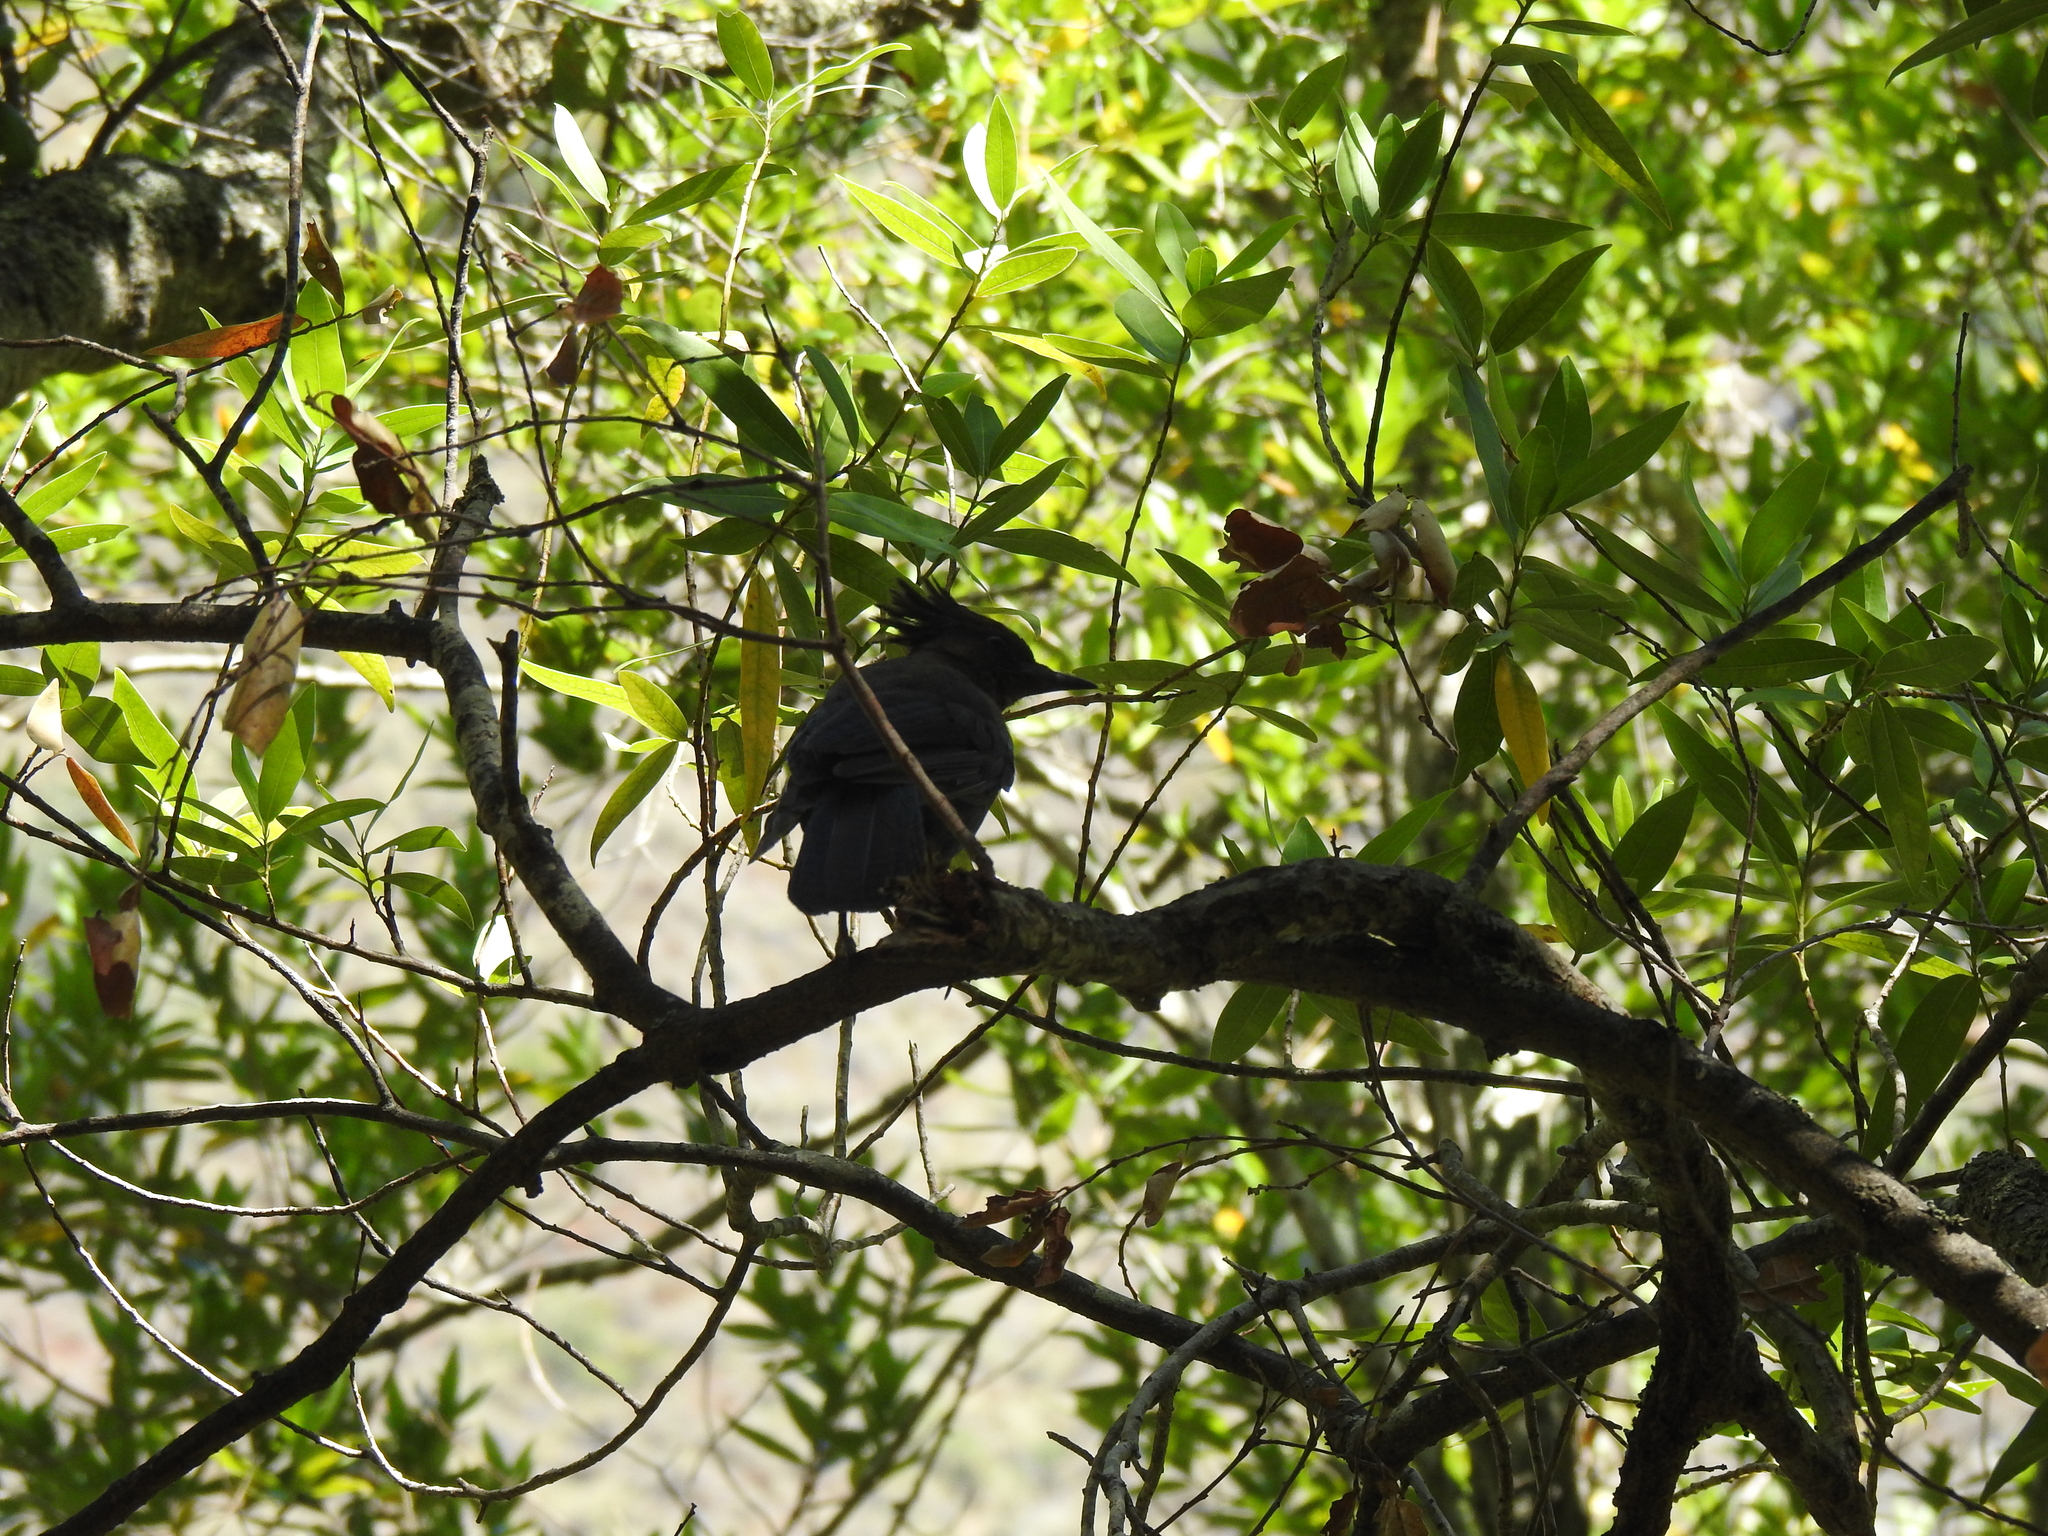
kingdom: Animalia
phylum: Chordata
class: Aves
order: Passeriformes
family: Corvidae
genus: Cyanocitta
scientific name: Cyanocitta stelleri
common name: Steller's jay
